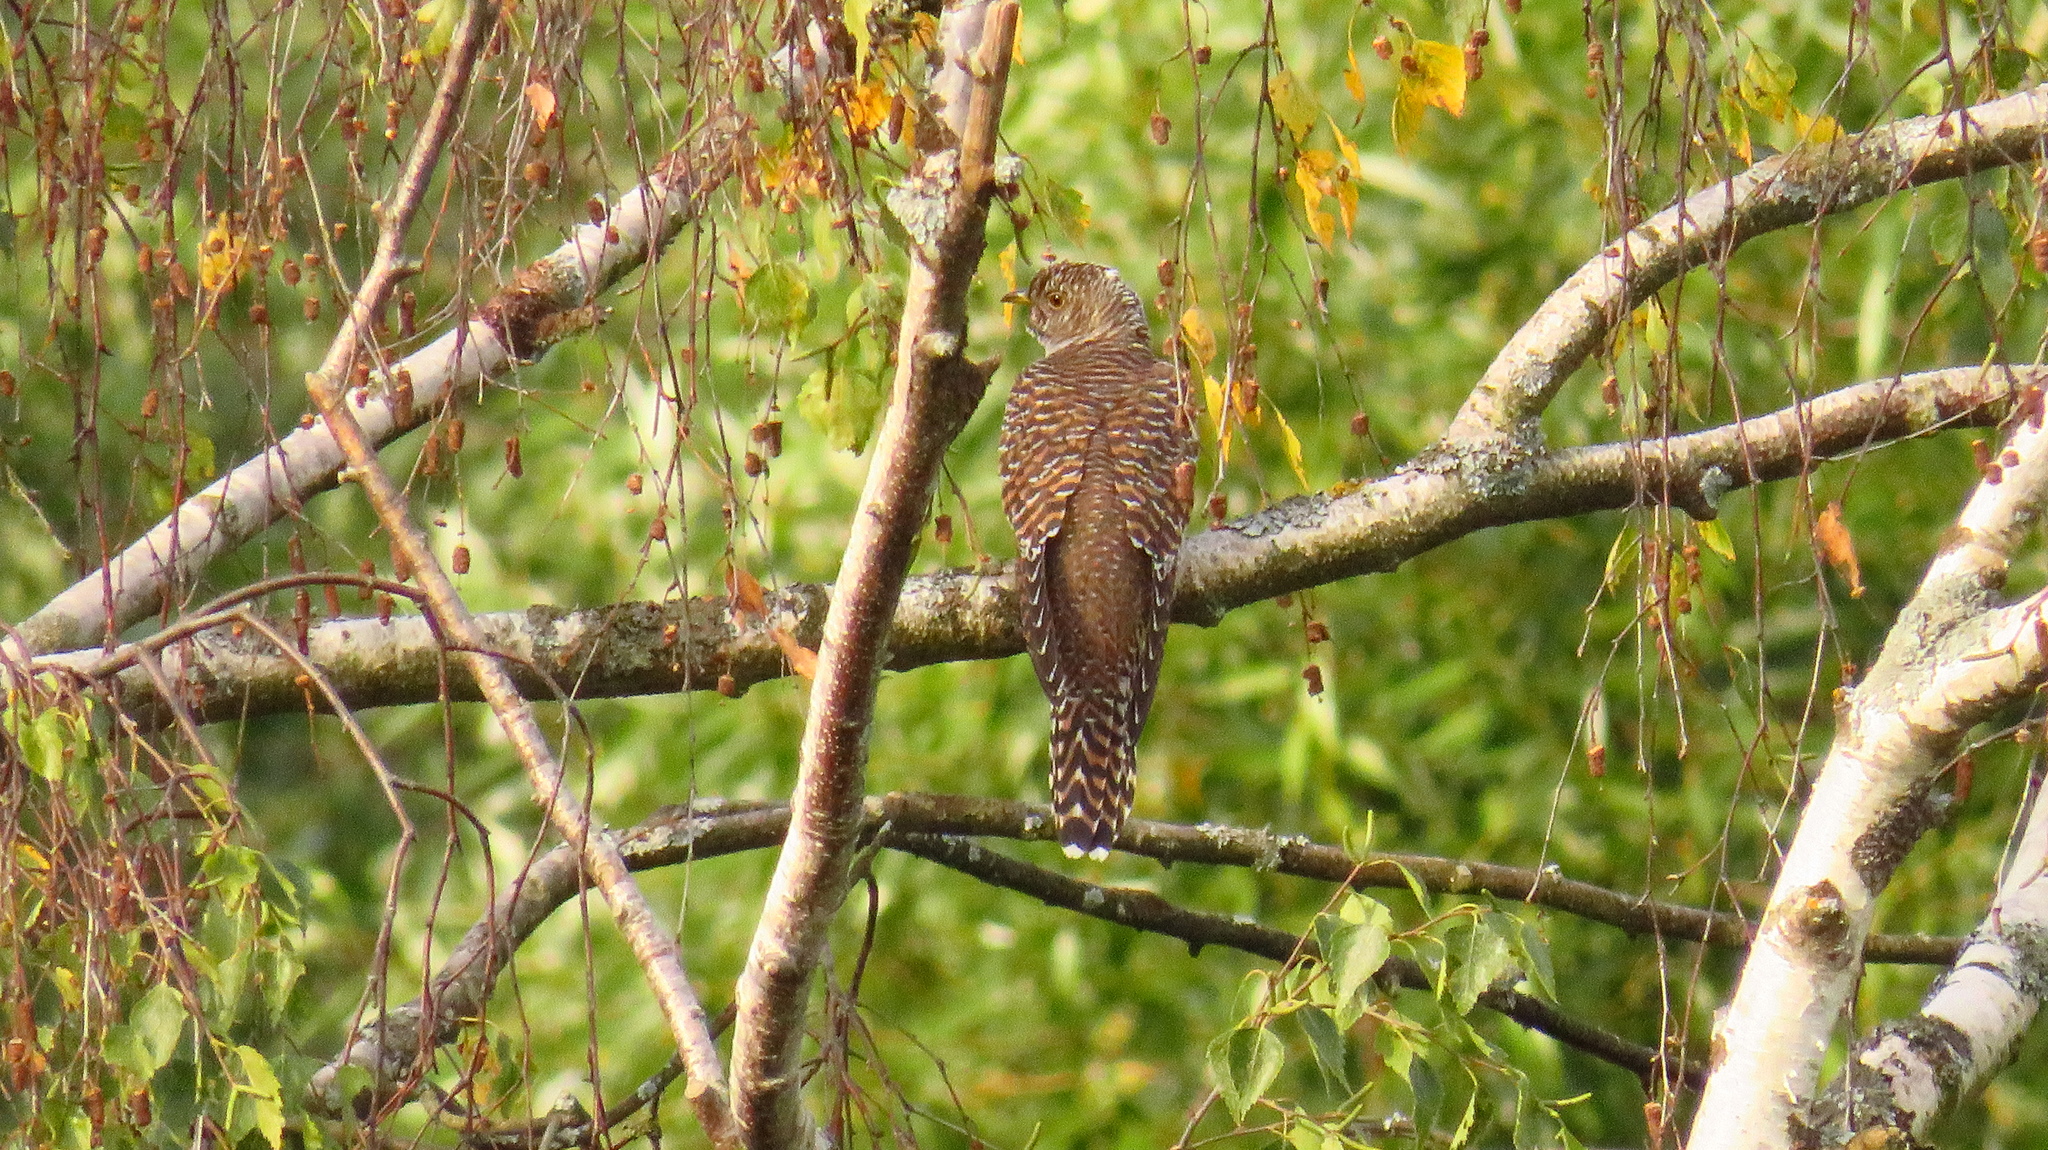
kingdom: Animalia
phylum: Chordata
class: Aves
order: Cuculiformes
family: Cuculidae
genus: Cuculus
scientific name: Cuculus canorus
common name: Common cuckoo
